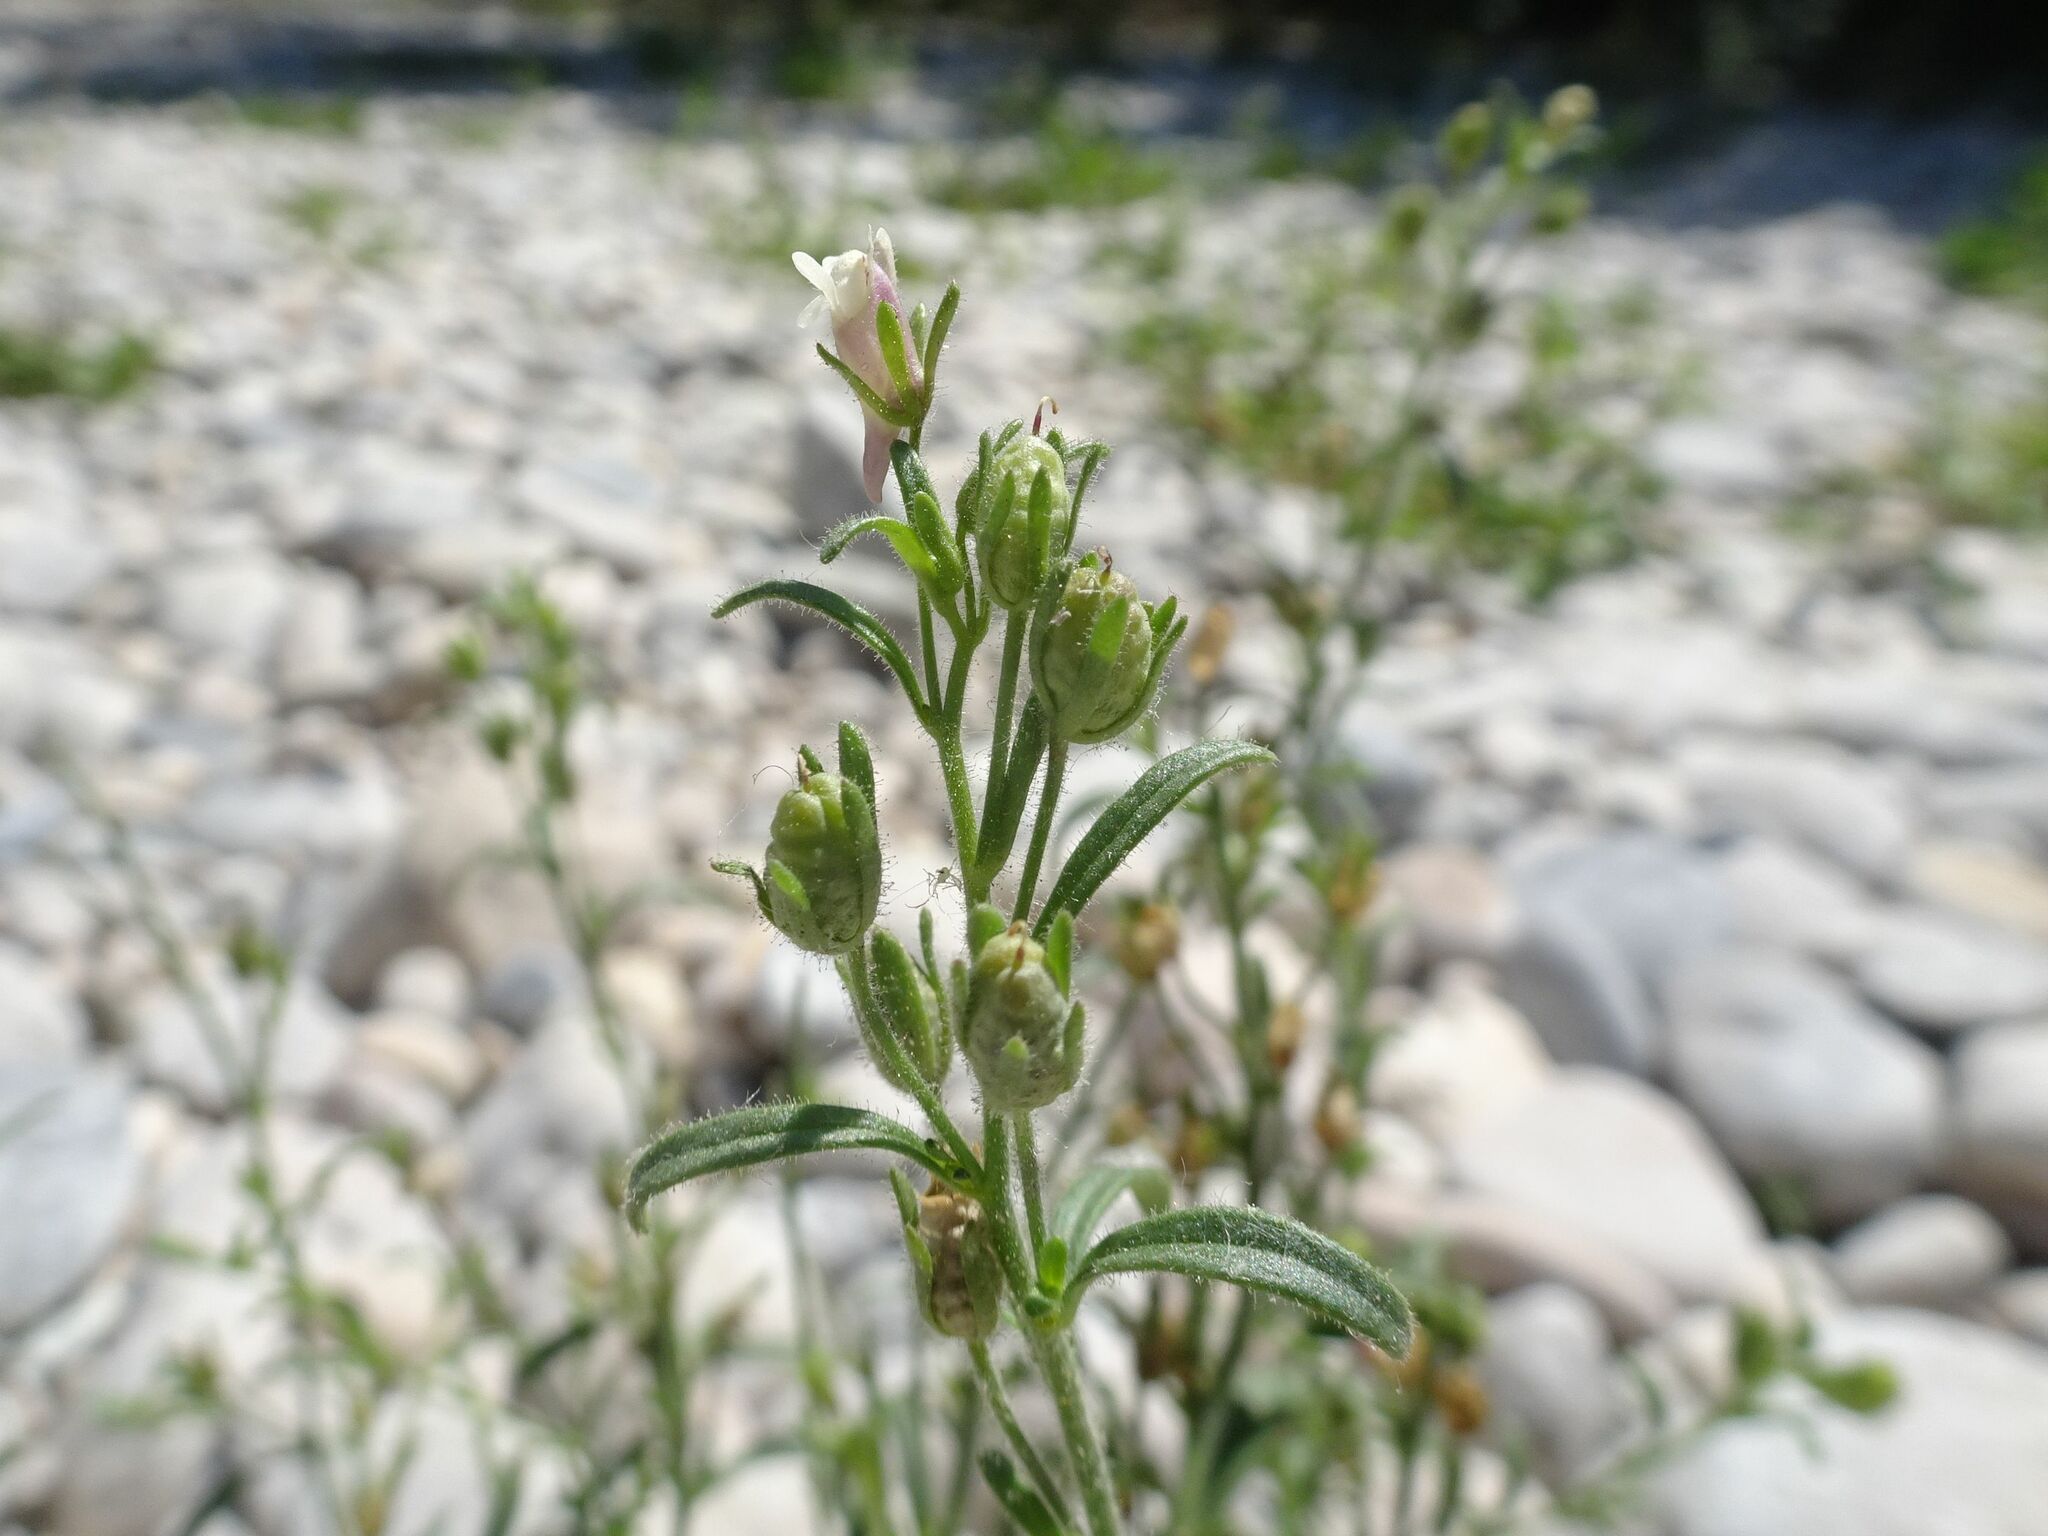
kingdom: Plantae
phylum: Tracheophyta
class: Magnoliopsida
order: Lamiales
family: Plantaginaceae
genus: Chaenorhinum
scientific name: Chaenorhinum minus
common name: Dwarf snapdragon
